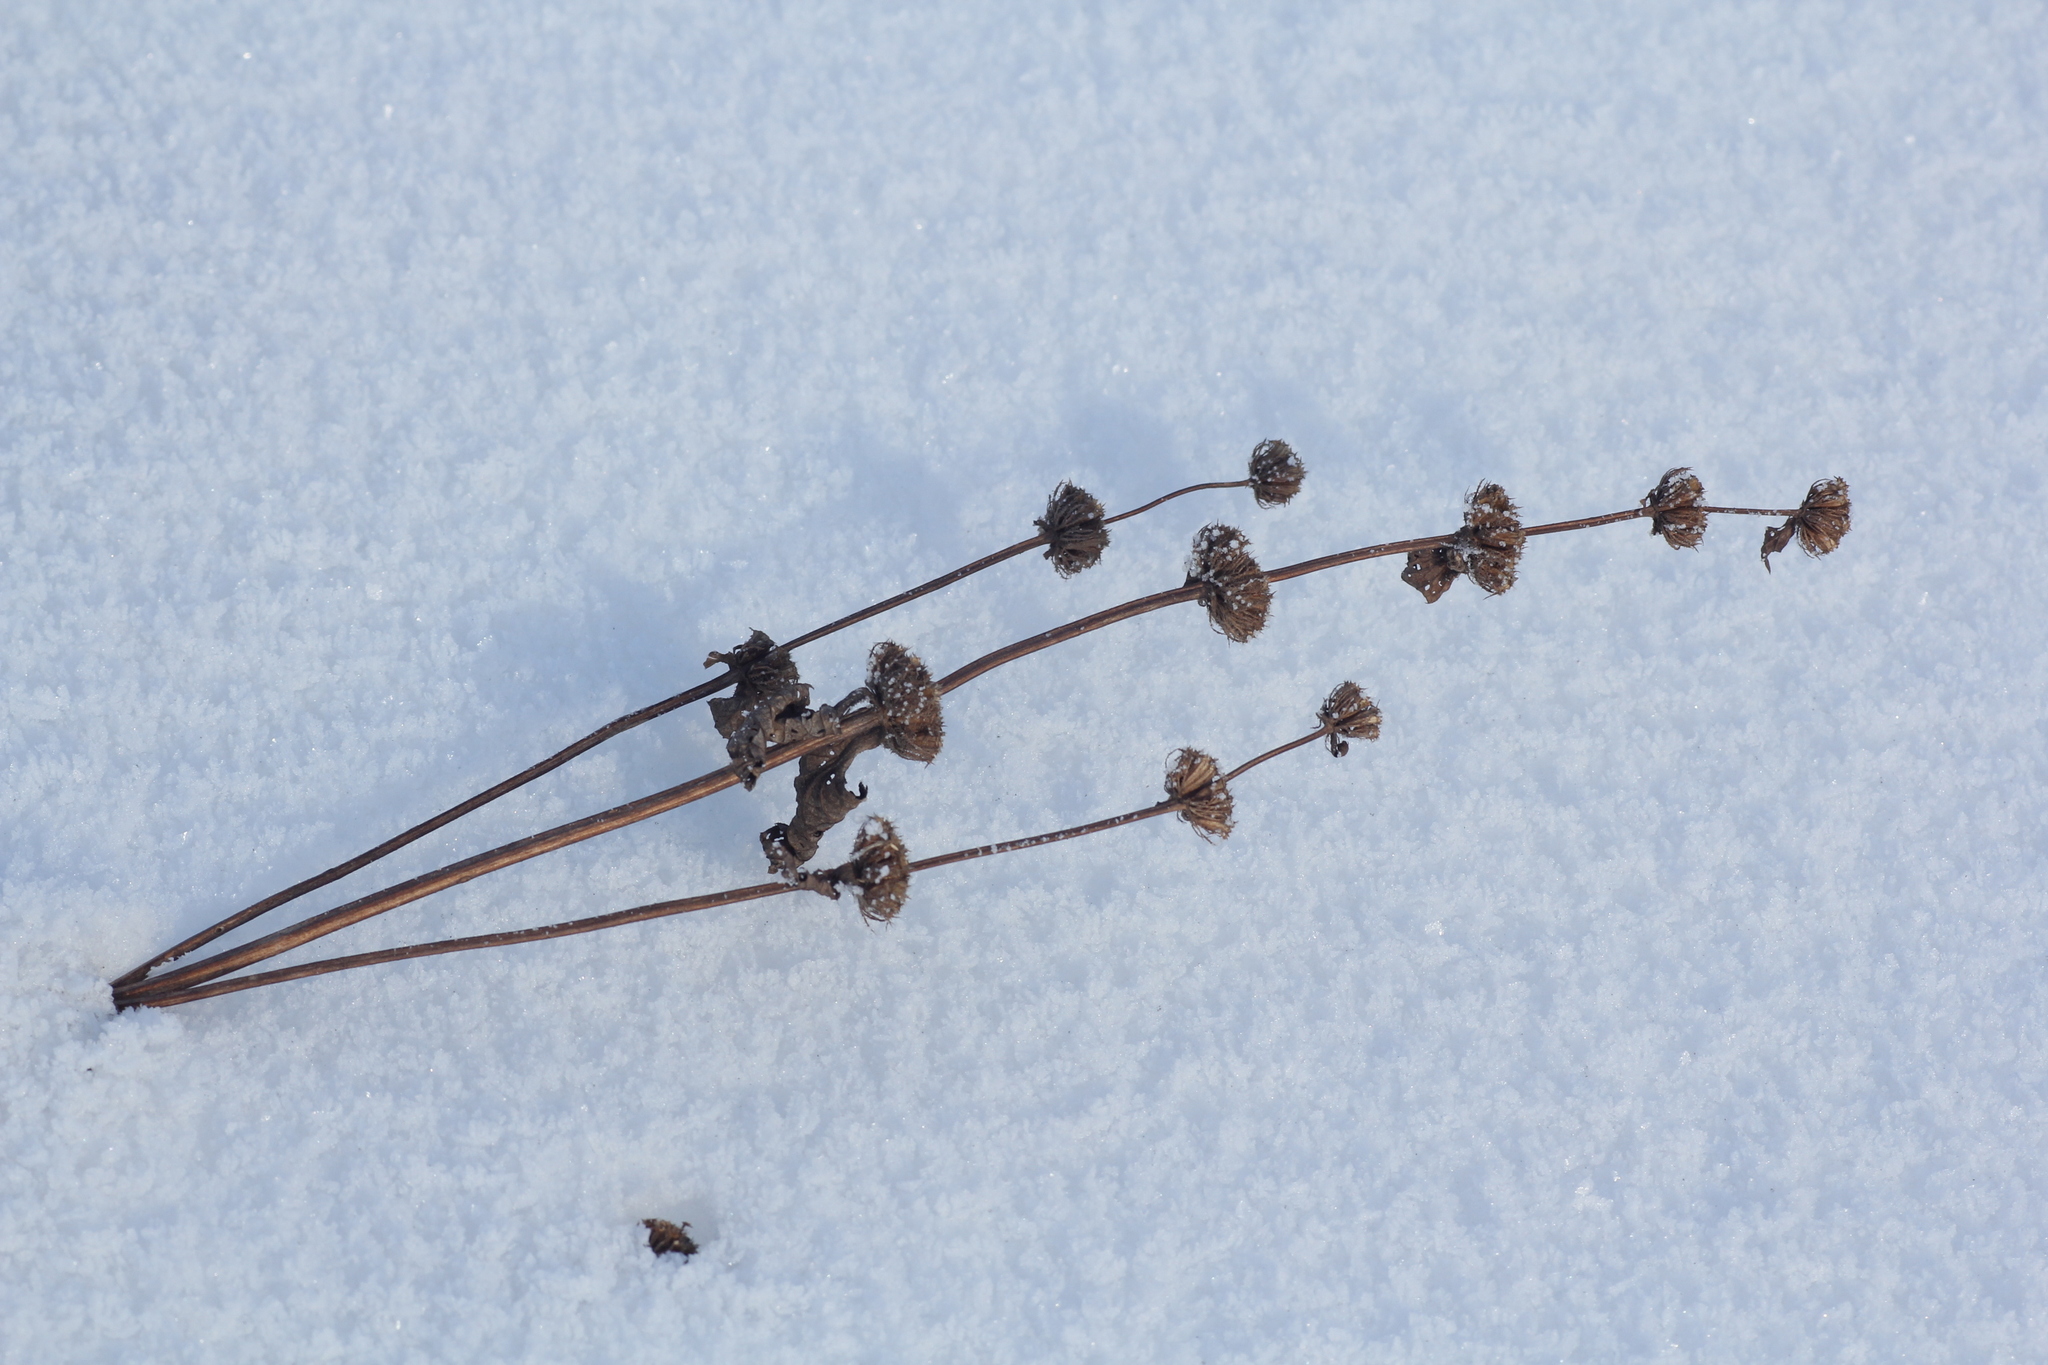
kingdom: Plantae
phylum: Tracheophyta
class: Magnoliopsida
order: Lamiales
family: Lamiaceae
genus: Phlomoides
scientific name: Phlomoides tuberosa
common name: Tuberous jerusalem sage
